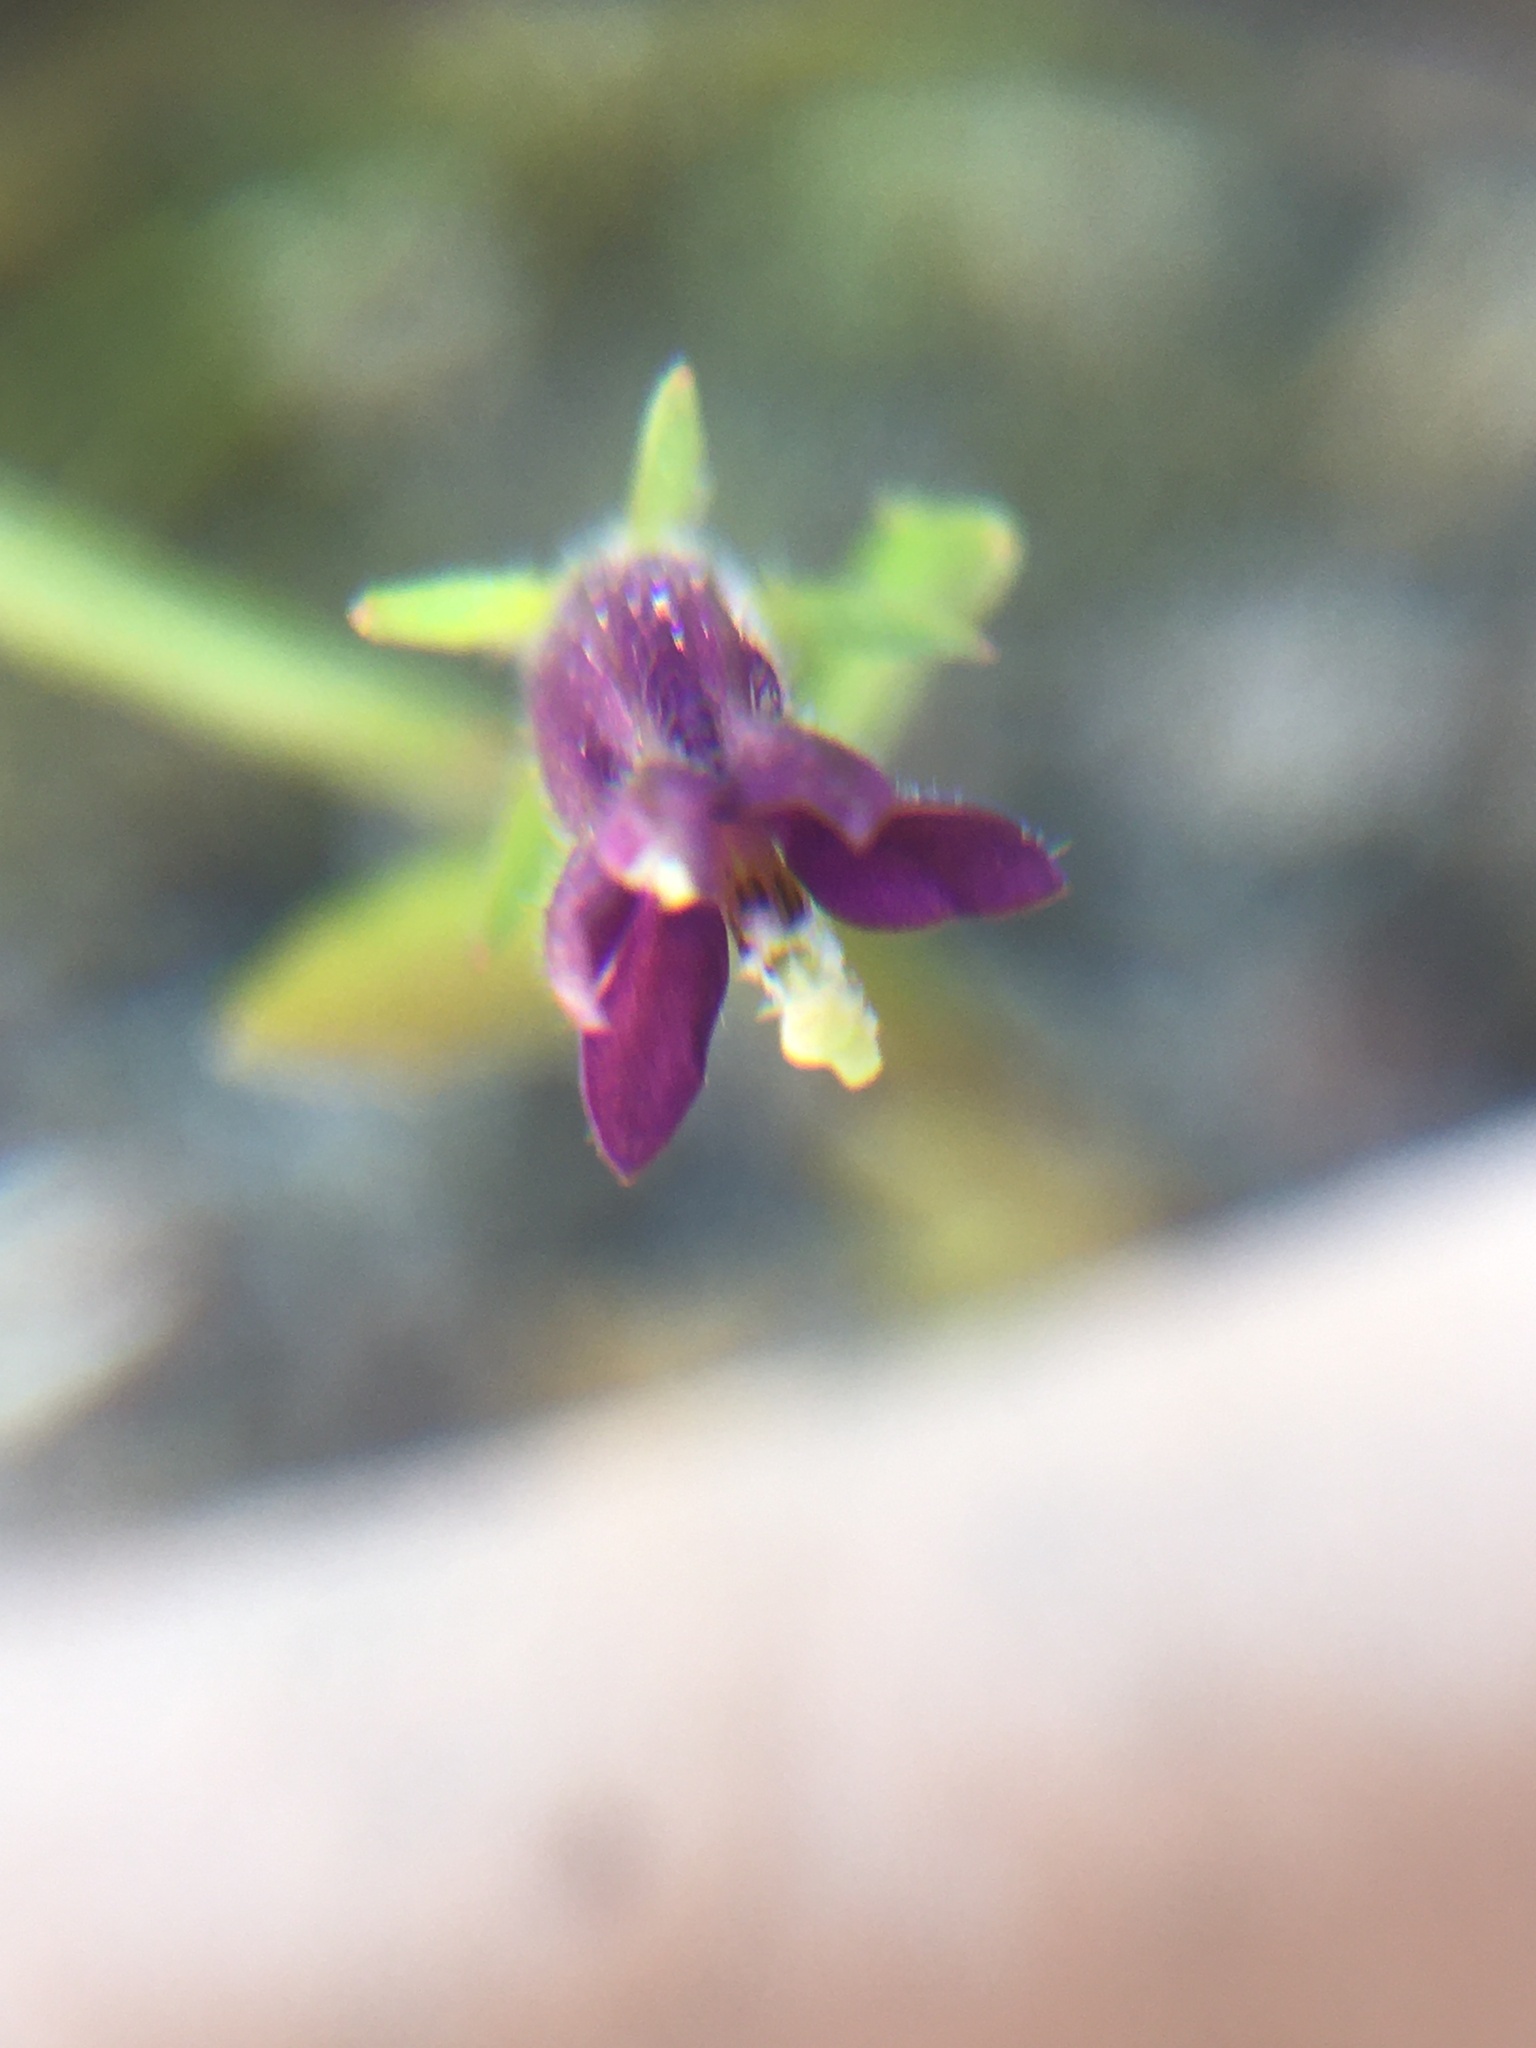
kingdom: Plantae
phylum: Tracheophyta
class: Magnoliopsida
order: Asterales
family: Campanulaceae
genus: Monopsis
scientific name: Monopsis debilis
